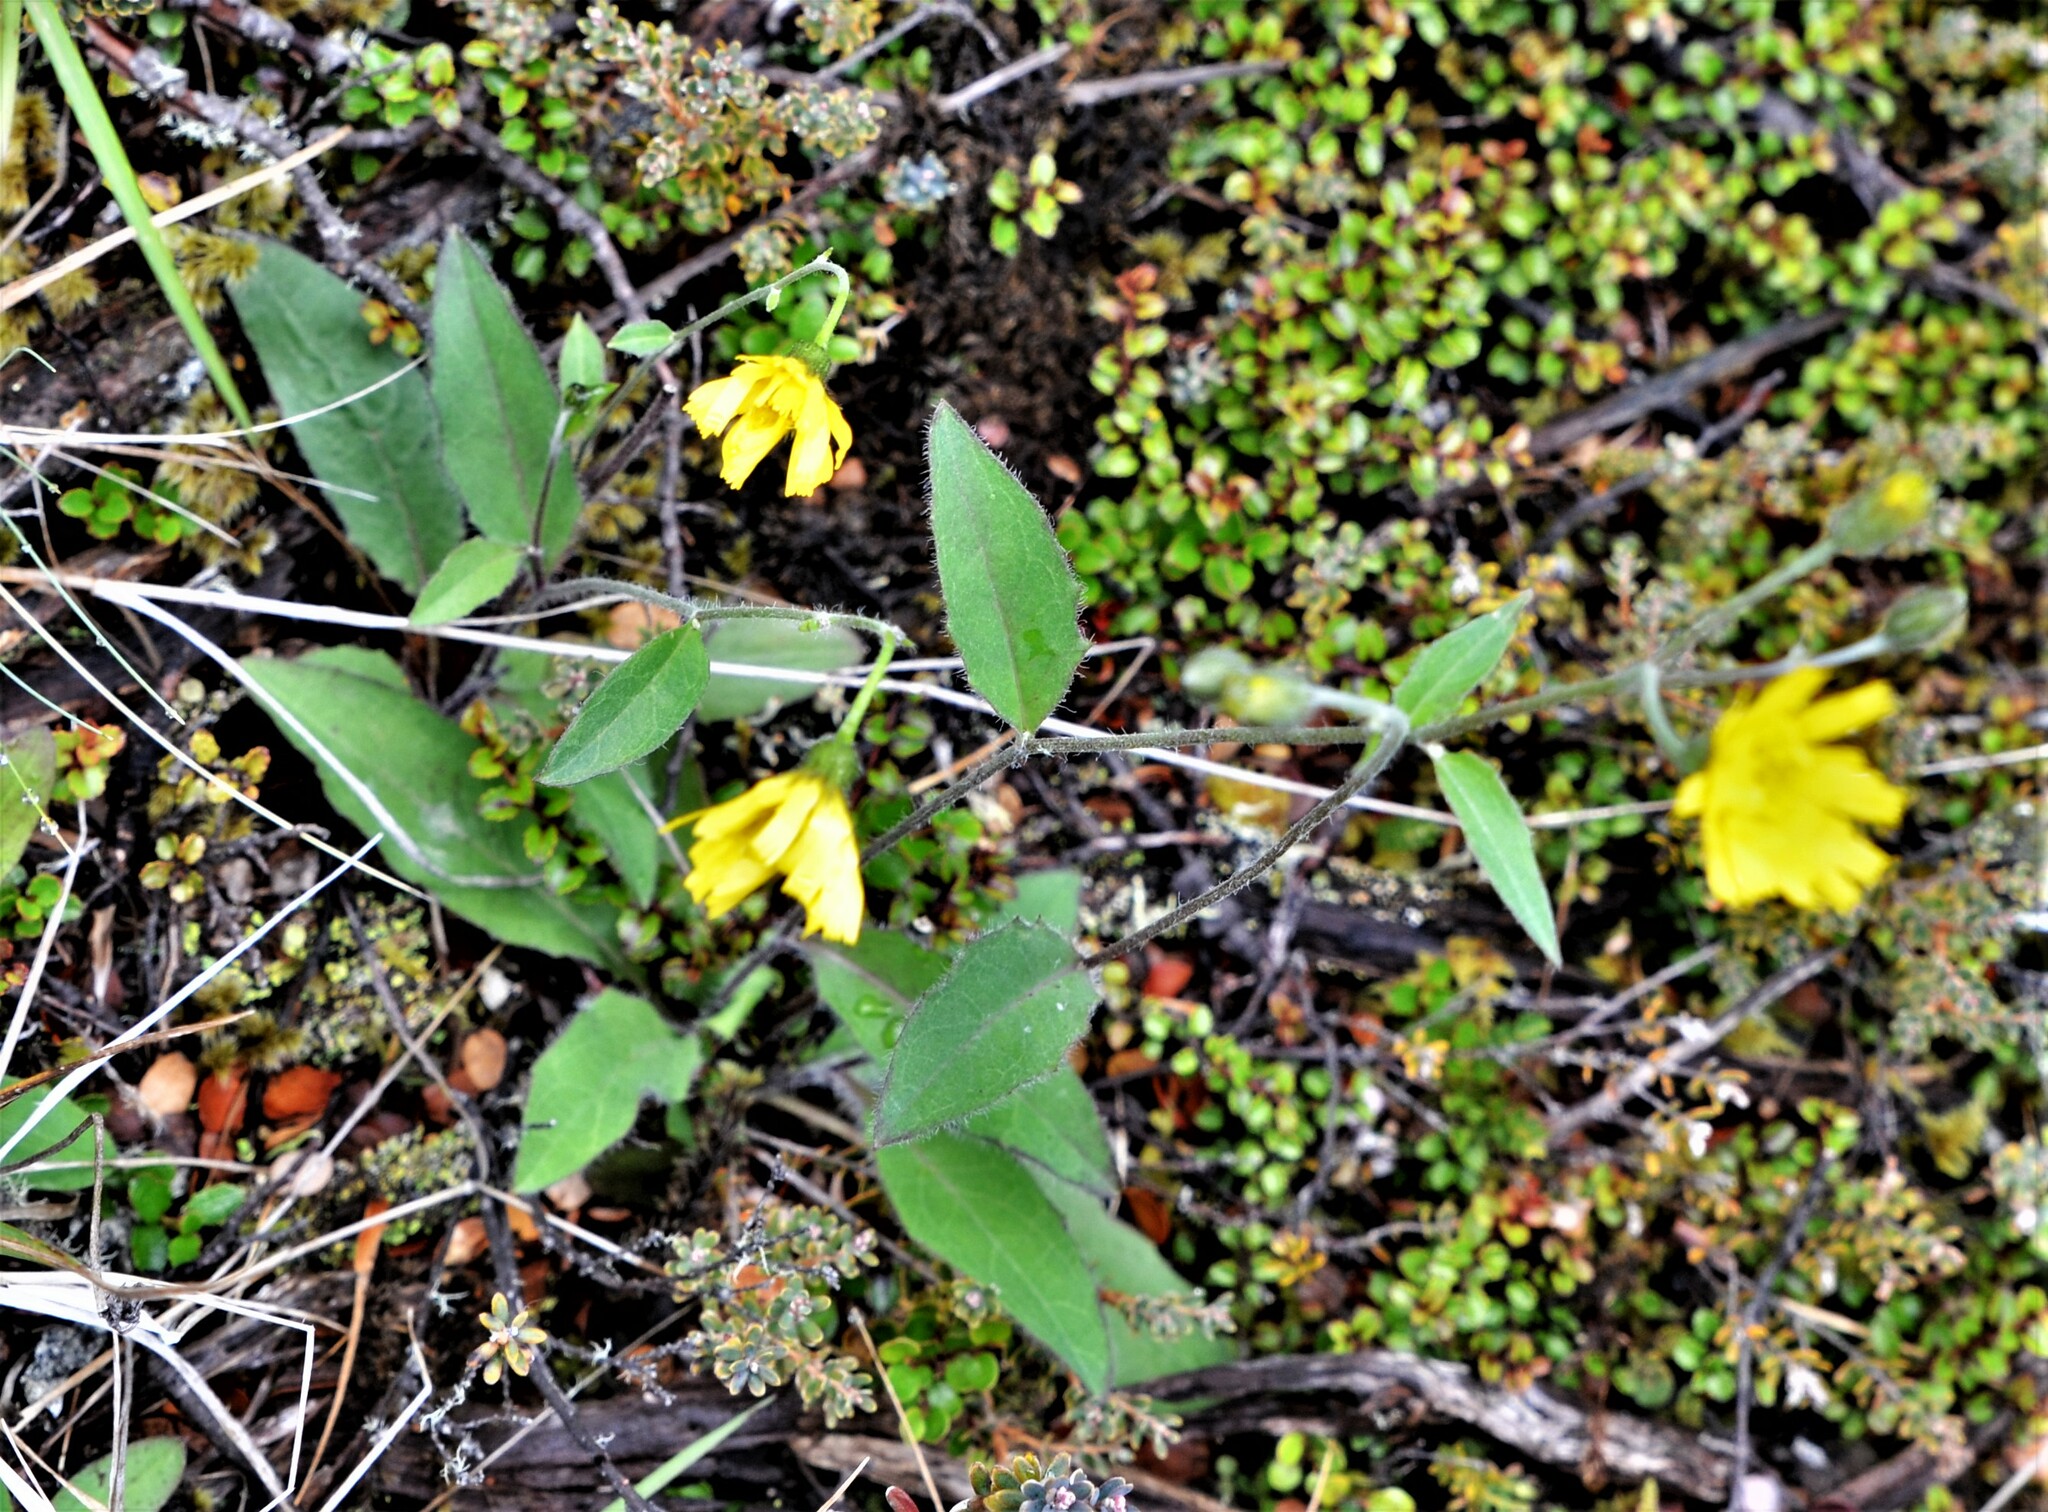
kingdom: Plantae
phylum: Tracheophyta
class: Magnoliopsida
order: Asterales
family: Asteraceae
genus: Hieracium
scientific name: Hieracium lepidulum
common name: Irregular-toothed hawkweed
